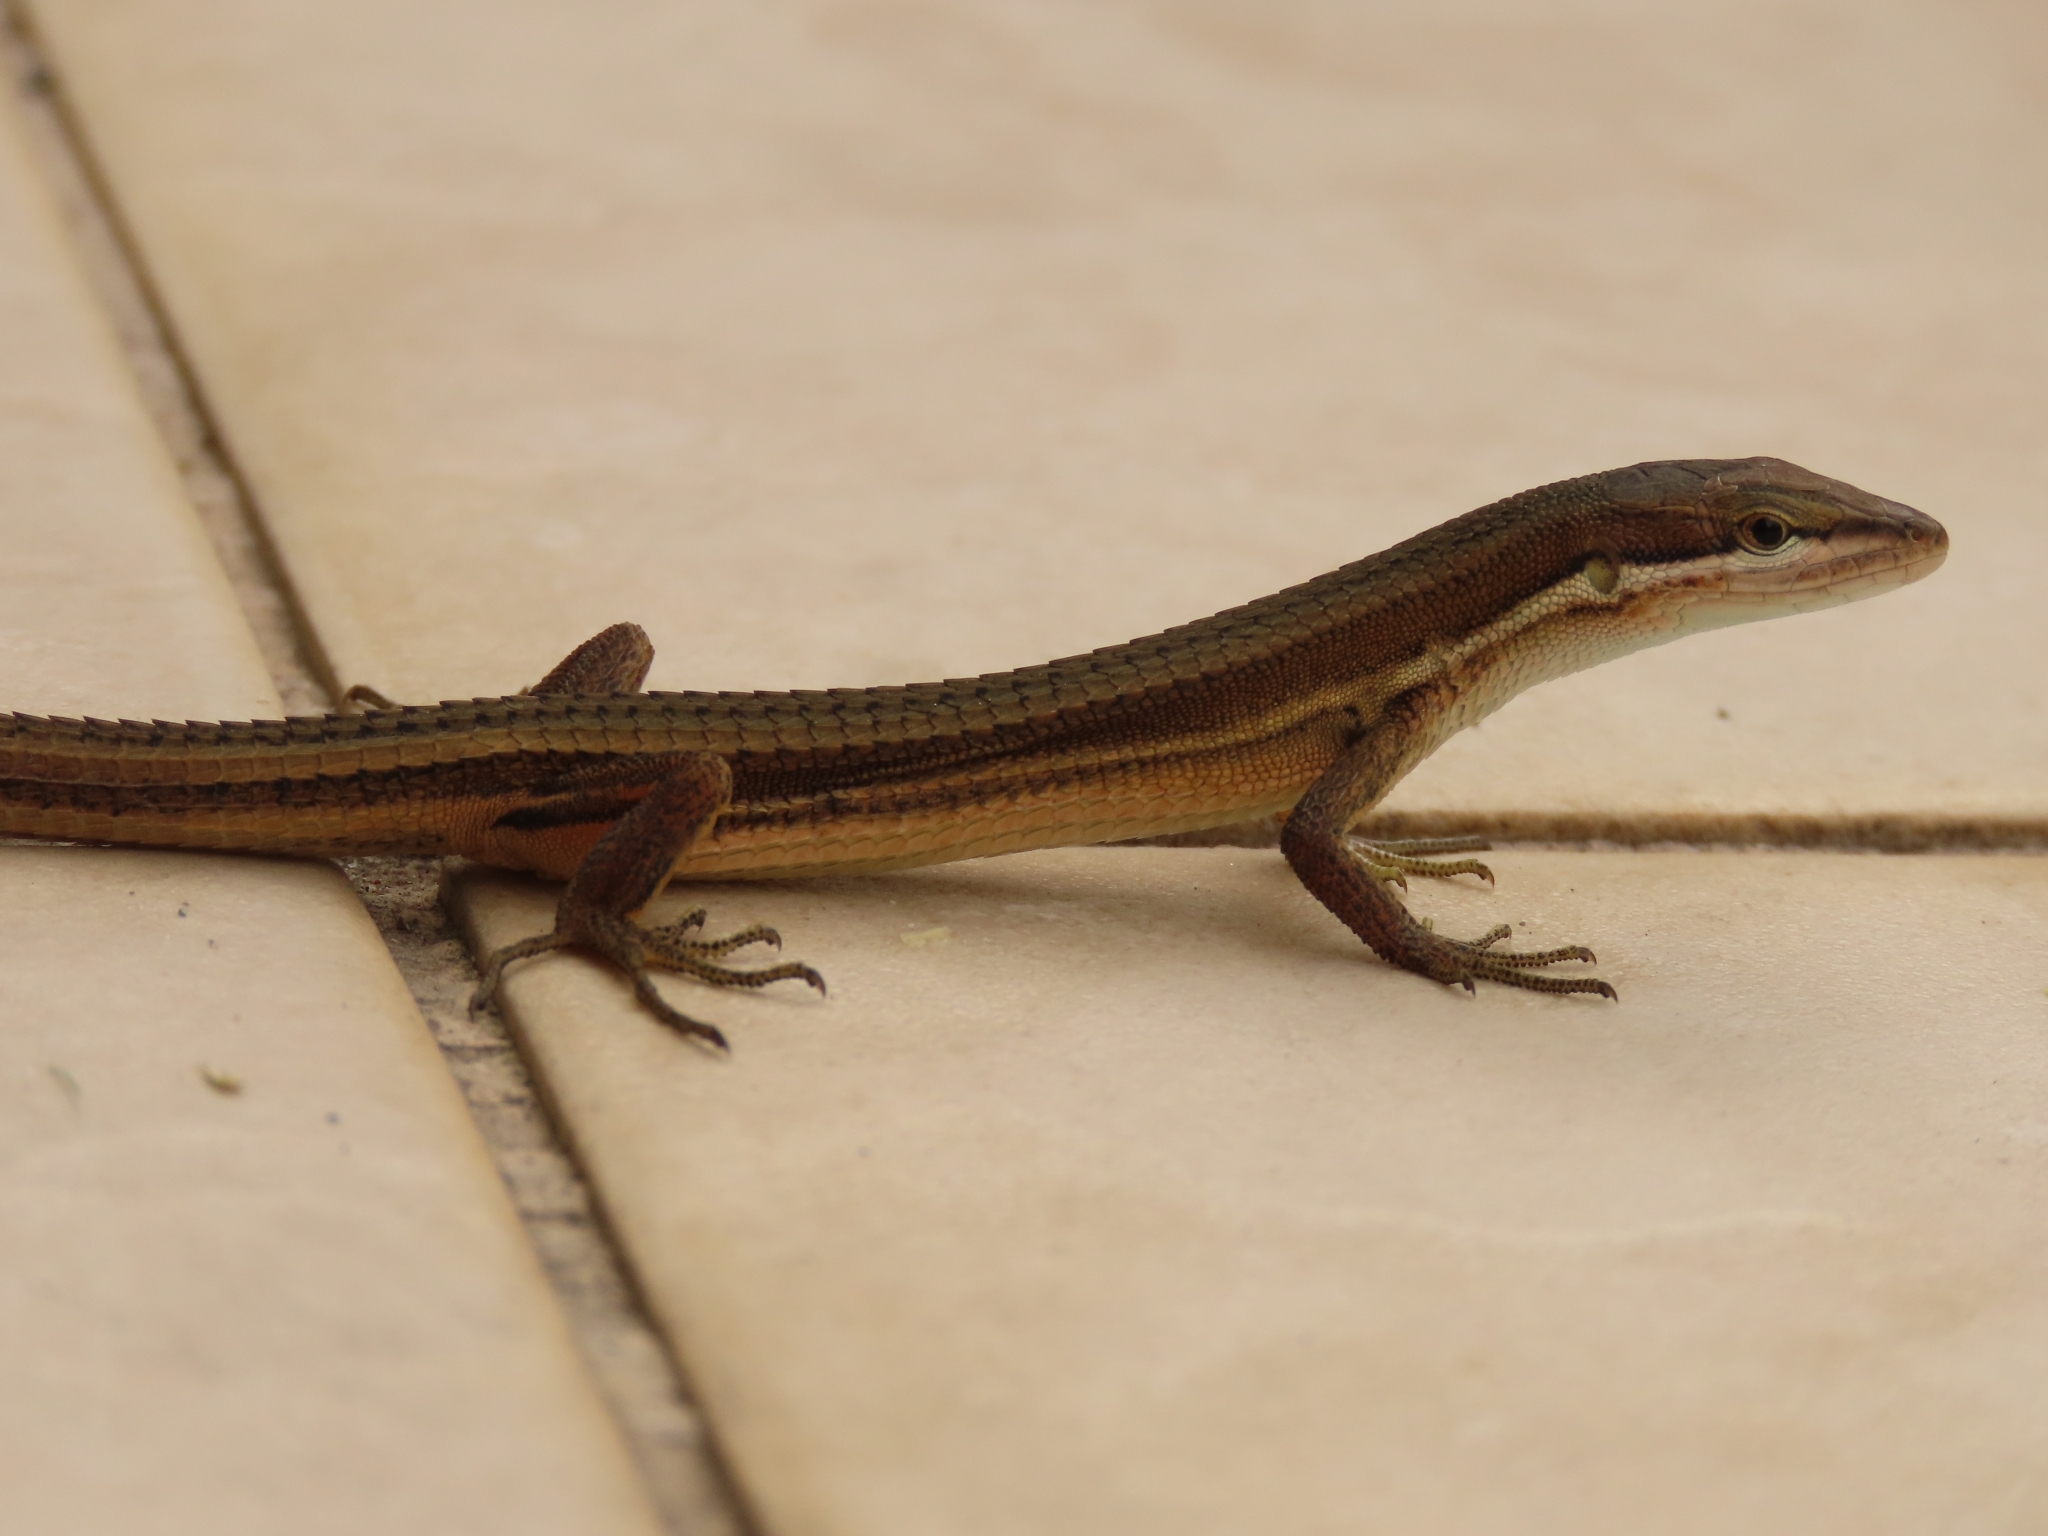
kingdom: Animalia
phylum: Chordata
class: Squamata
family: Lacertidae
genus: Takydromus
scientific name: Takydromus luyeanus
